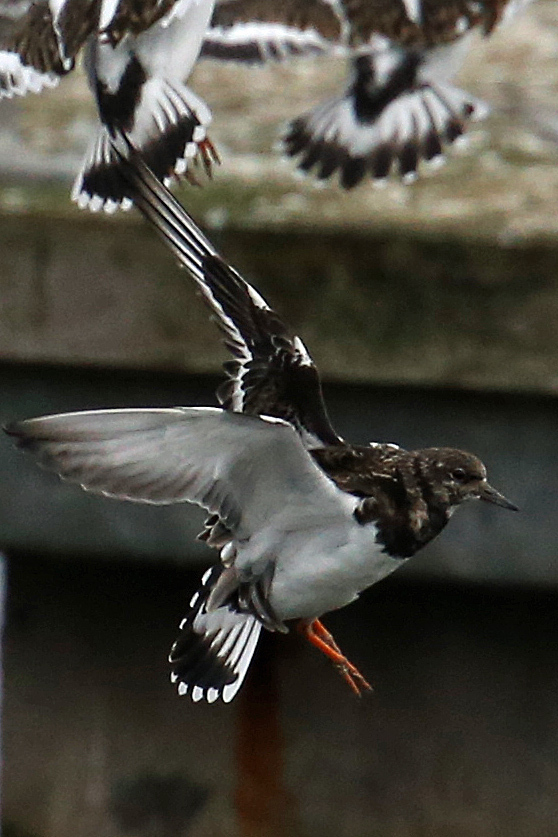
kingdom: Animalia
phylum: Chordata
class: Aves
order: Charadriiformes
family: Scolopacidae
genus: Arenaria
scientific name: Arenaria interpres
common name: Ruddy turnstone
